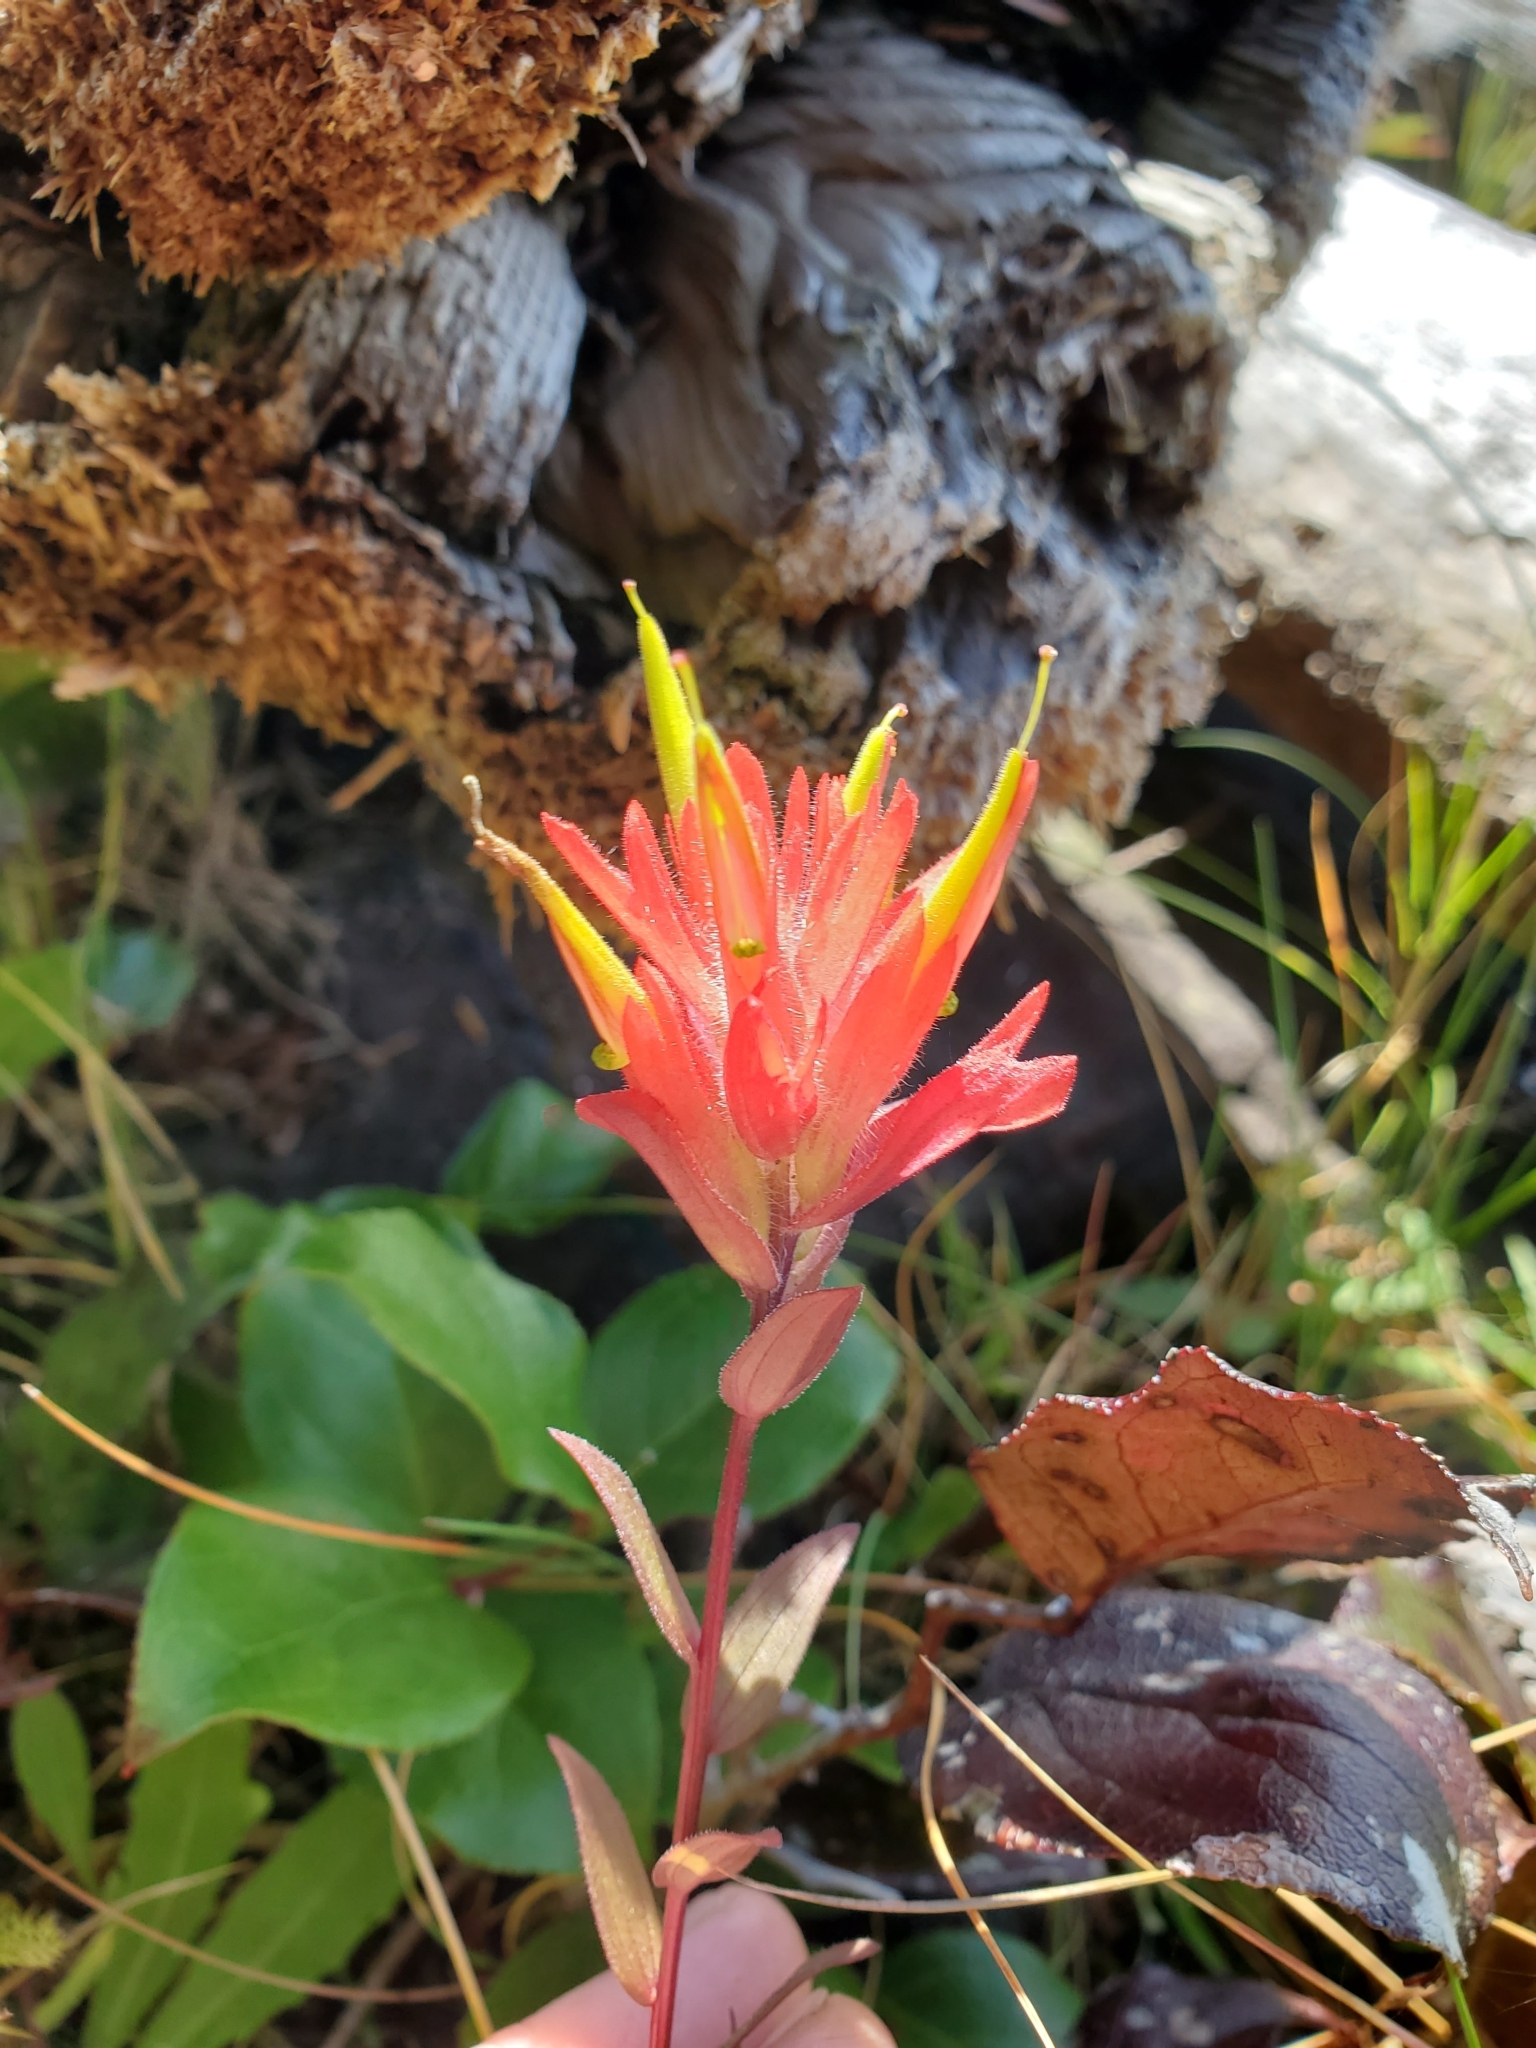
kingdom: Plantae
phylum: Tracheophyta
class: Magnoliopsida
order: Lamiales
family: Orobanchaceae
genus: Castilleja
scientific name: Castilleja miniata
